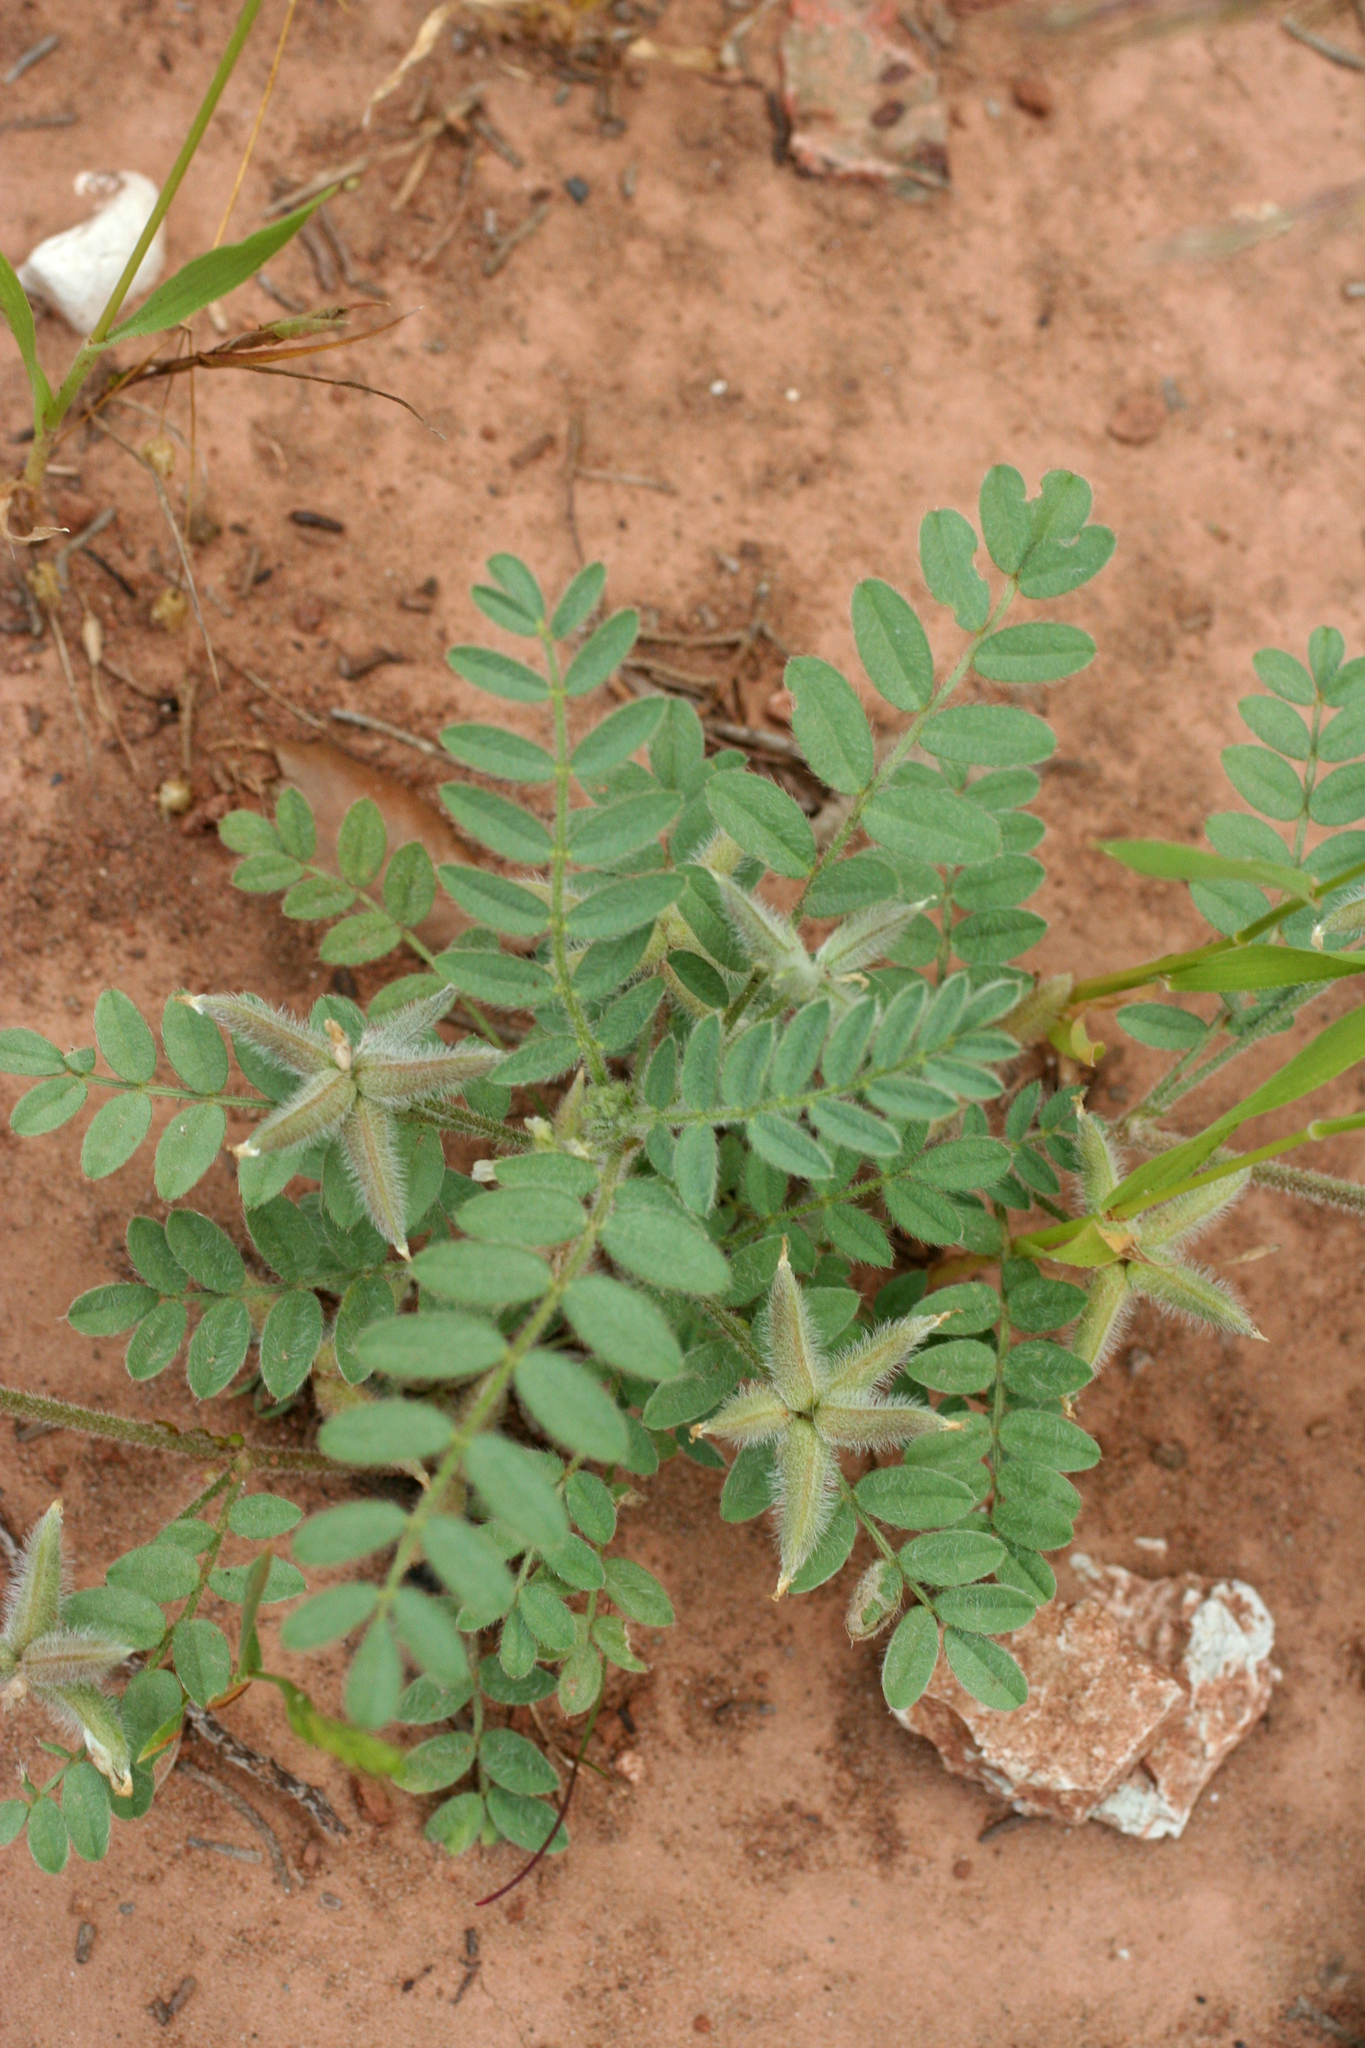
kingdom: Plantae
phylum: Tracheophyta
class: Magnoliopsida
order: Fabales
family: Fabaceae
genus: Astragalus
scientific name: Astragalus stella
